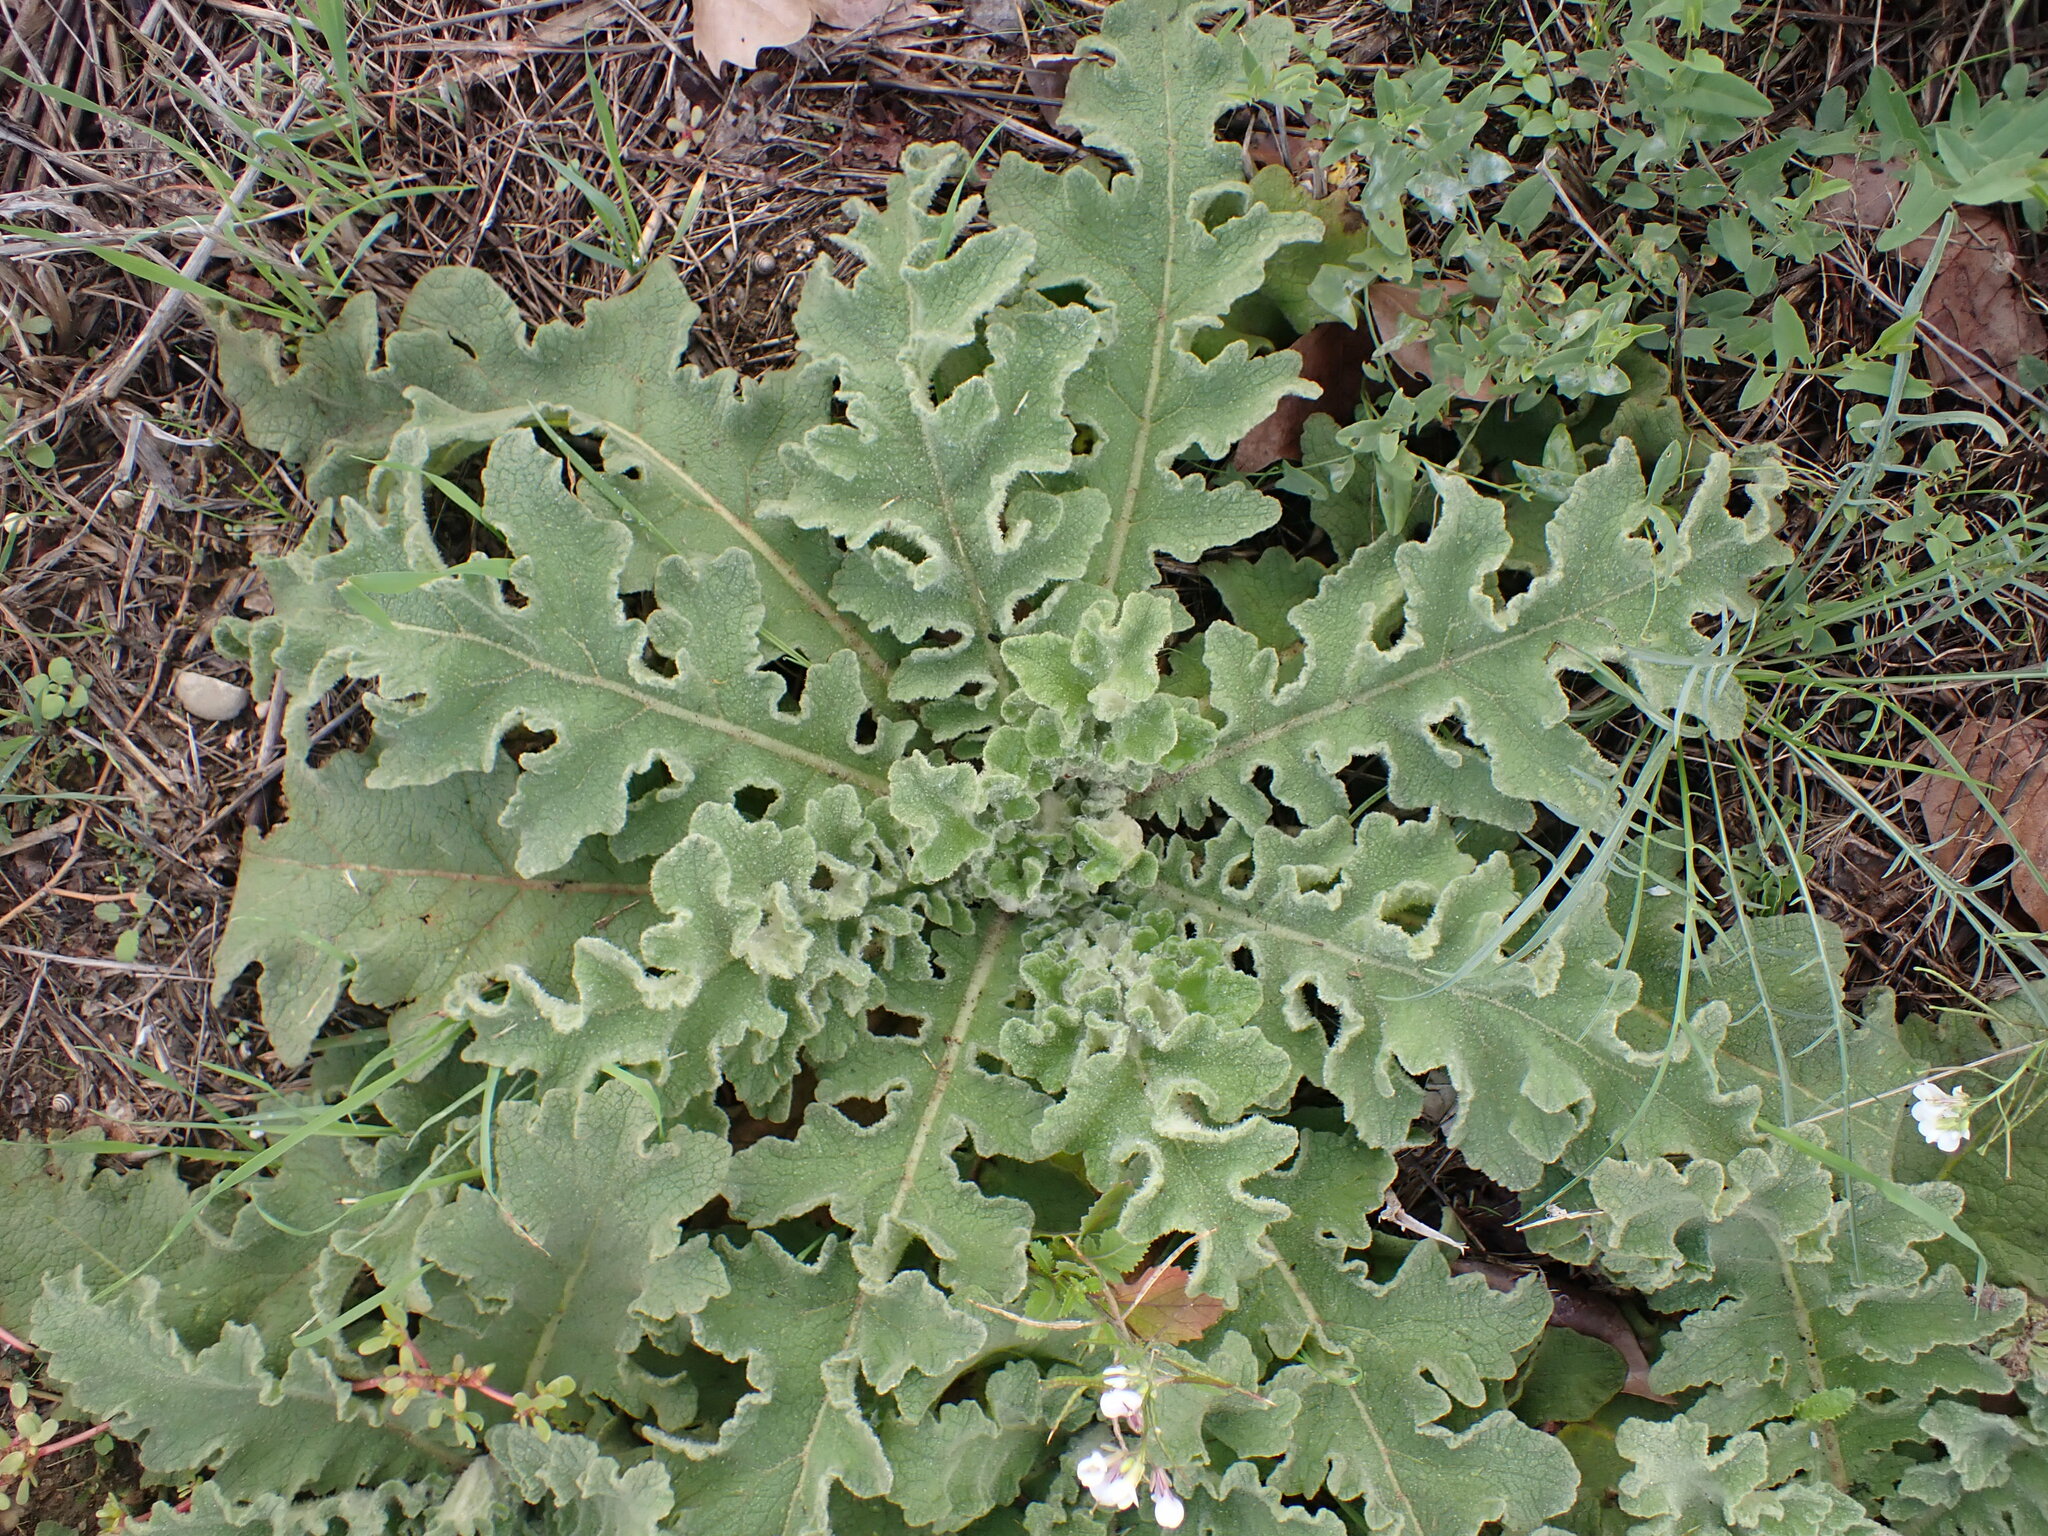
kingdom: Plantae
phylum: Tracheophyta
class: Magnoliopsida
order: Lamiales
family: Scrophulariaceae
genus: Verbascum
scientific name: Verbascum sinuatum
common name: Wavyleaf mullein
